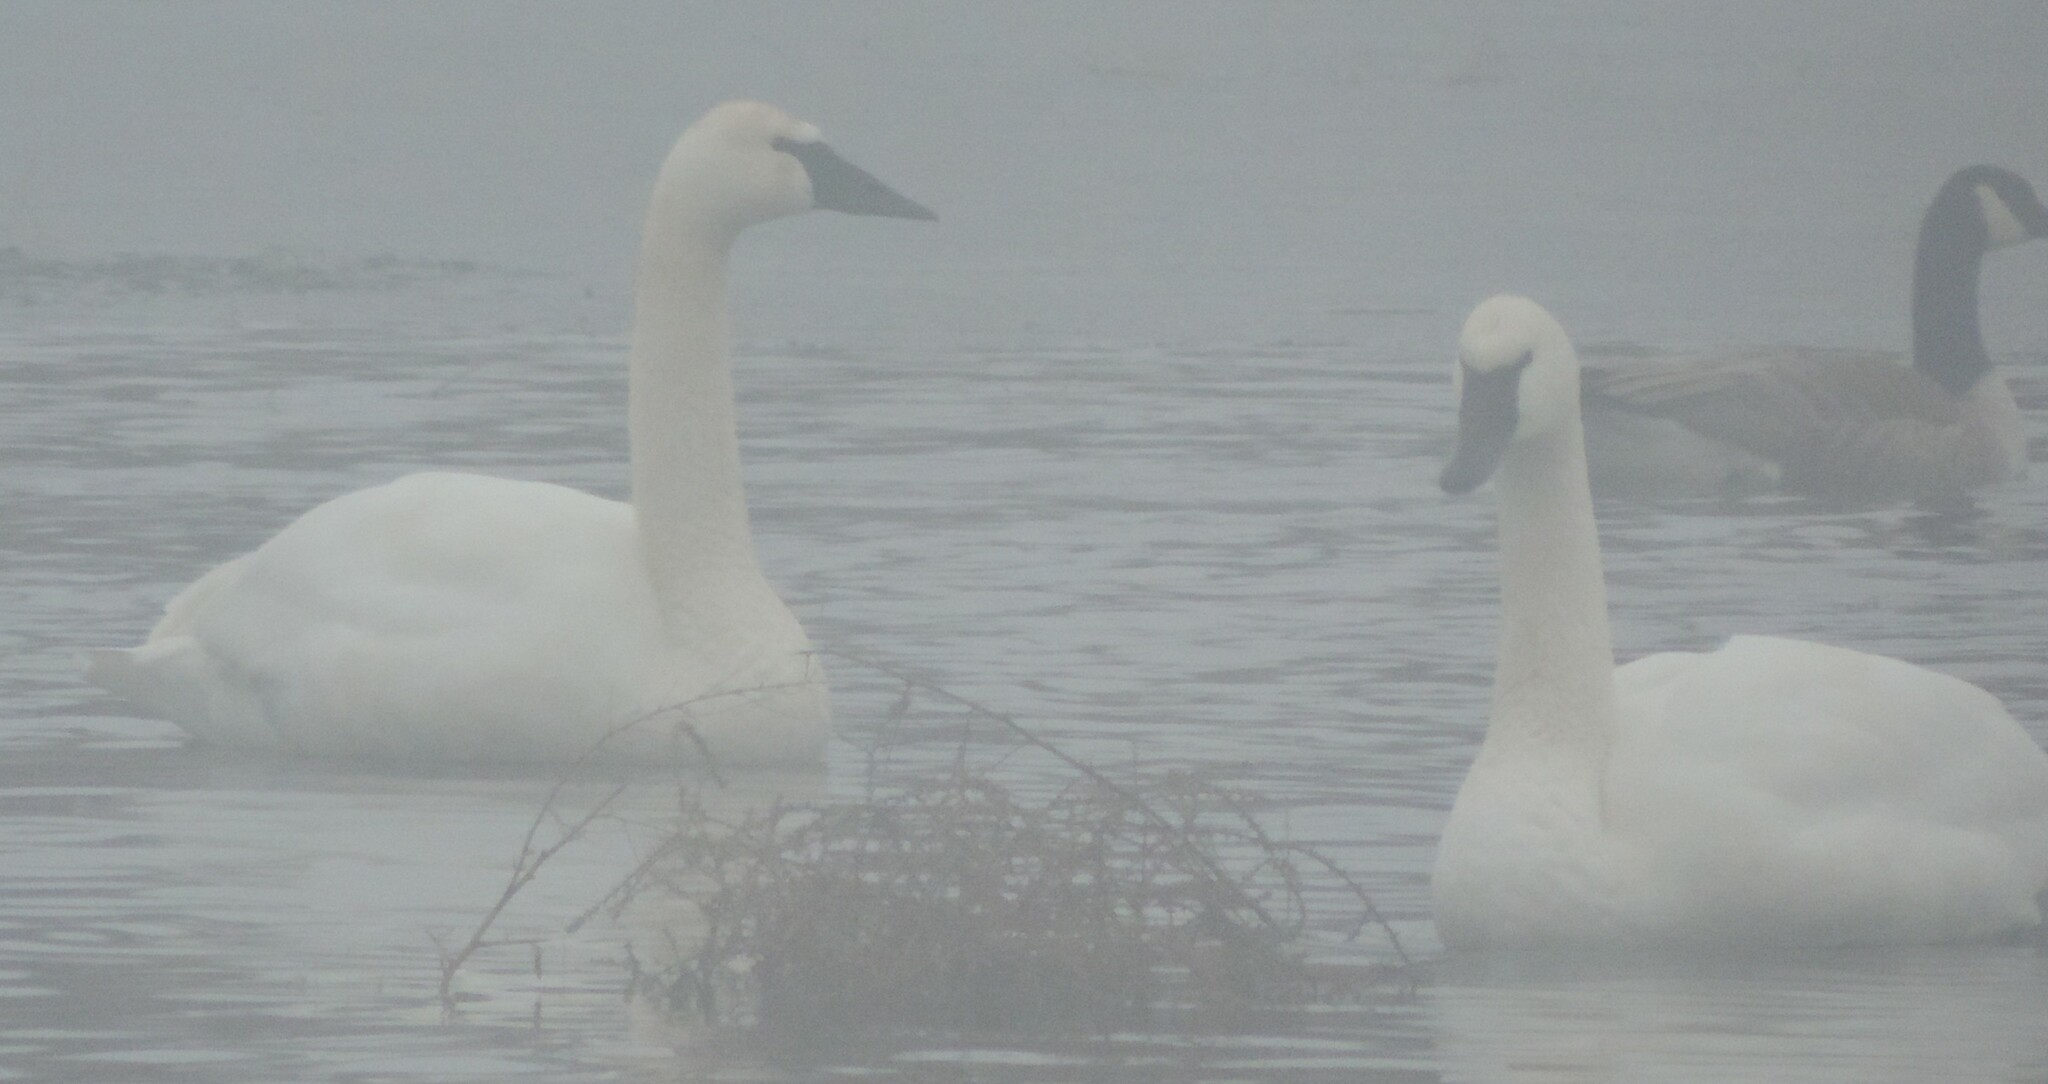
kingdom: Animalia
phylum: Chordata
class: Aves
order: Anseriformes
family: Anatidae
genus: Cygnus
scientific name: Cygnus buccinator
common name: Trumpeter swan
